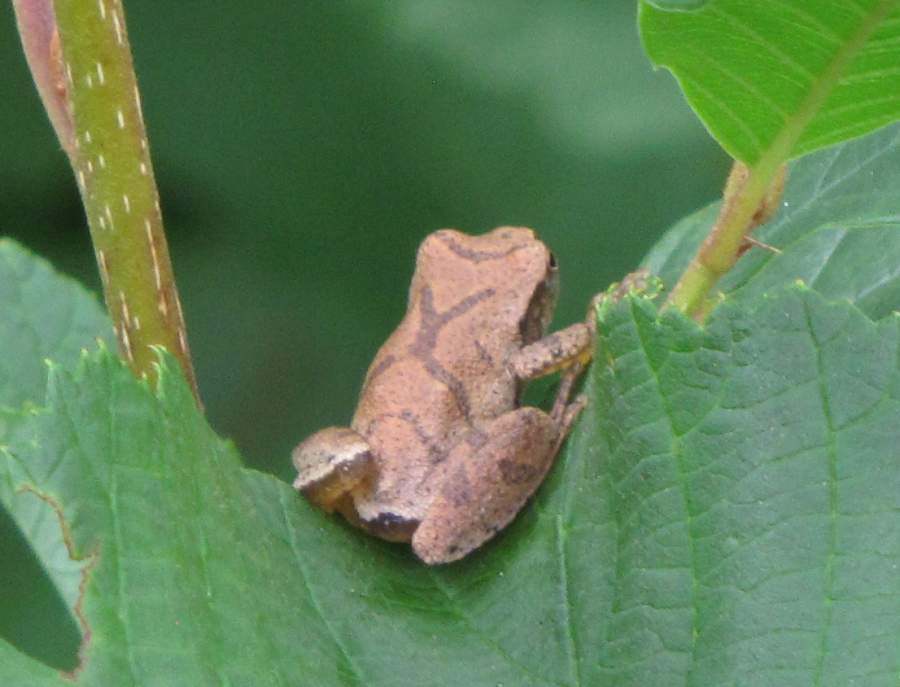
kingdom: Animalia
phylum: Chordata
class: Amphibia
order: Anura
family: Hylidae
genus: Pseudacris
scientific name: Pseudacris crucifer
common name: Spring peeper
